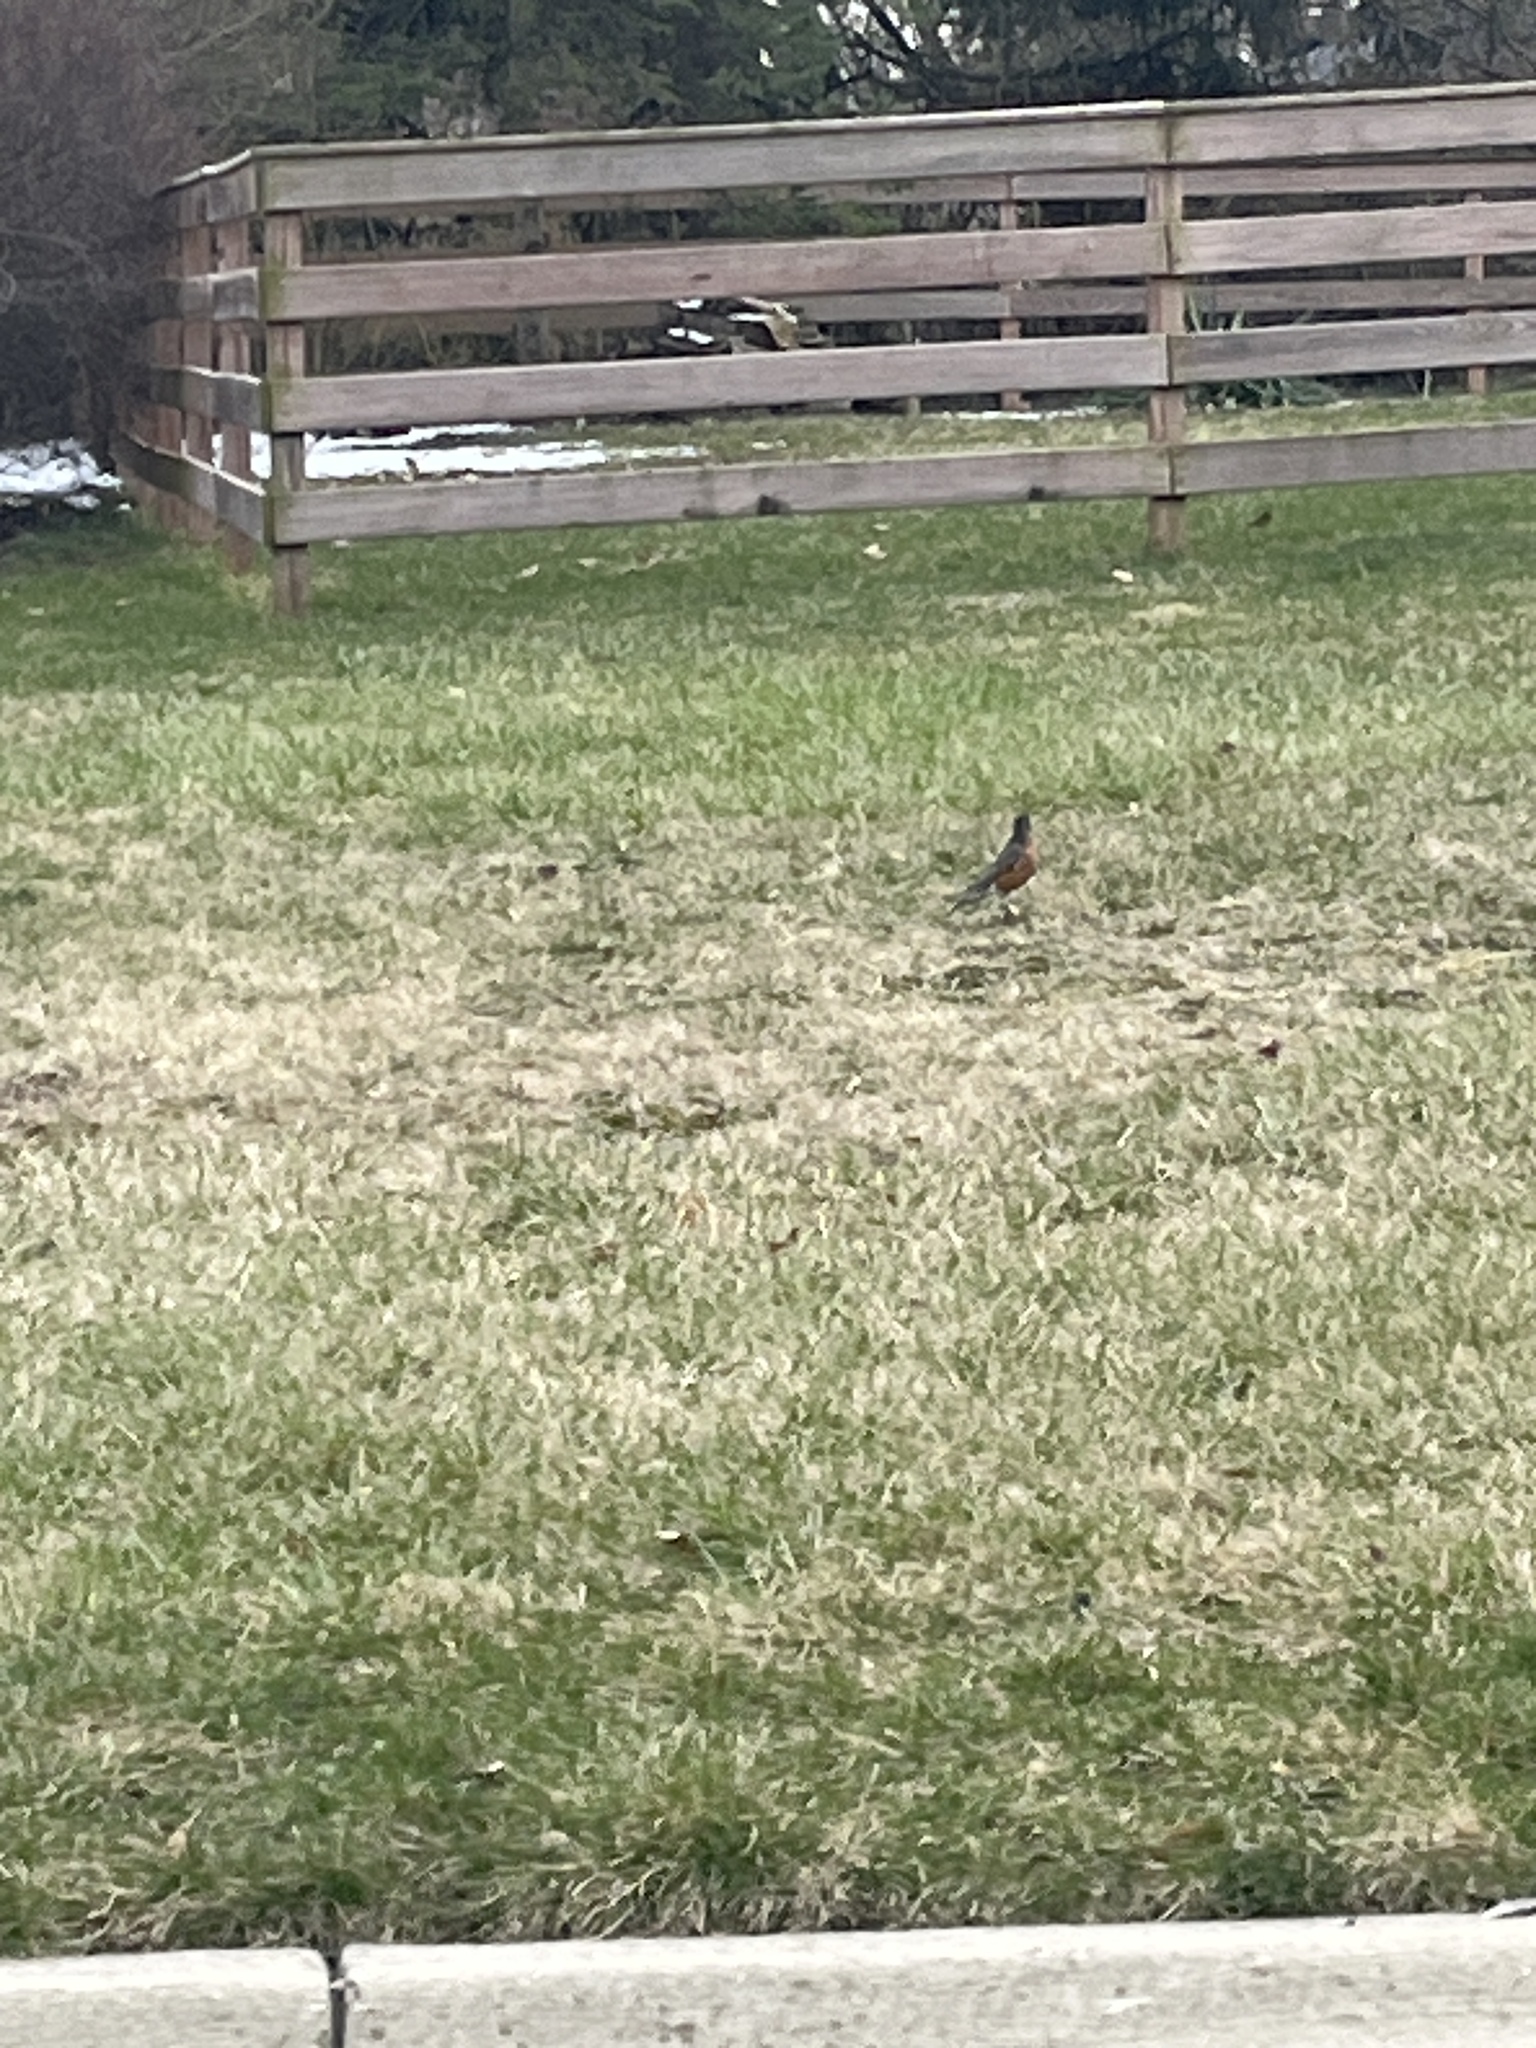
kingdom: Animalia
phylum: Chordata
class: Aves
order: Passeriformes
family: Turdidae
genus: Turdus
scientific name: Turdus migratorius
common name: American robin
